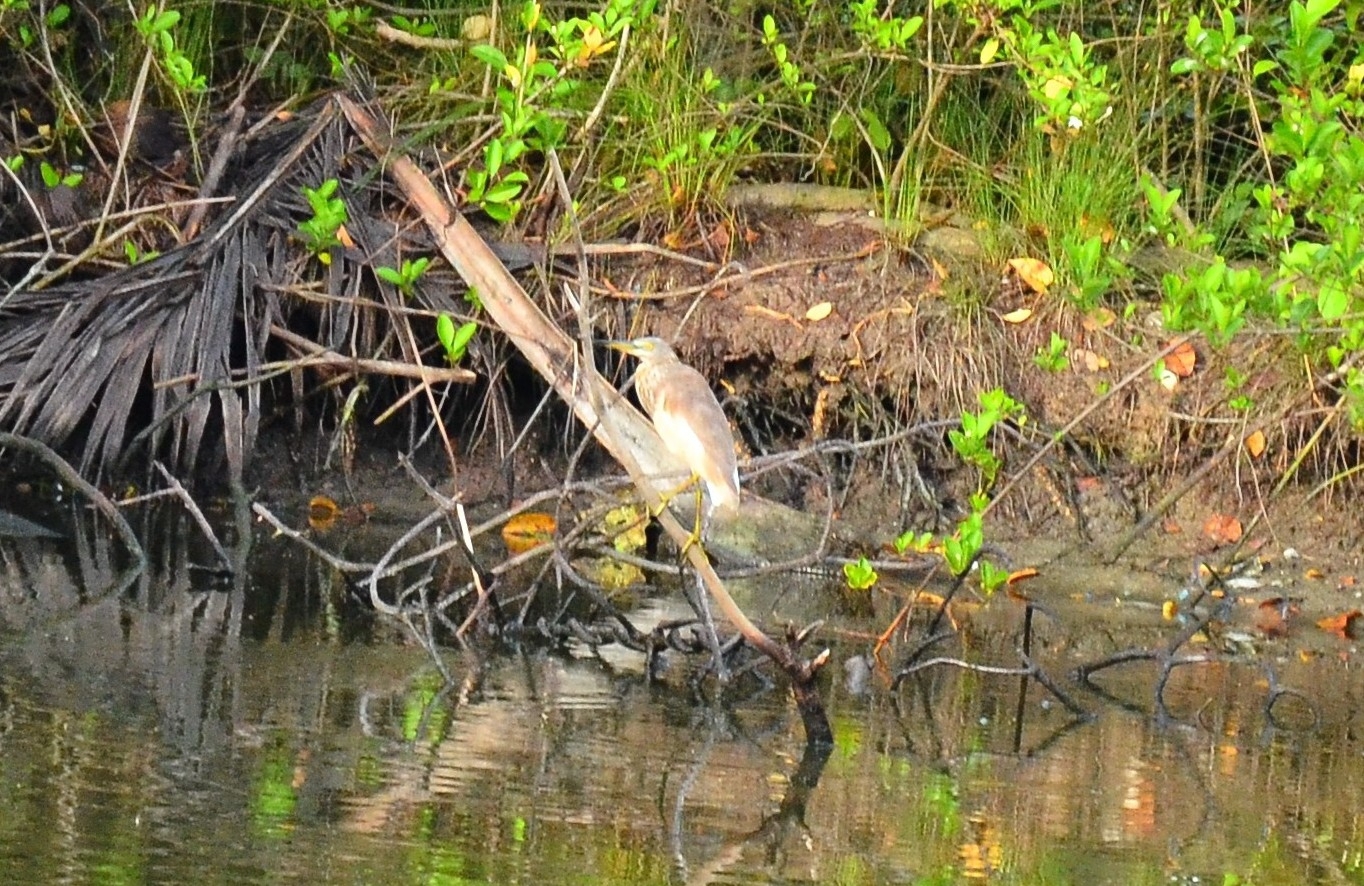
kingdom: Animalia
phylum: Chordata
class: Aves
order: Pelecaniformes
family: Ardeidae
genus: Ardeola
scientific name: Ardeola grayii
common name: Indian pond heron
